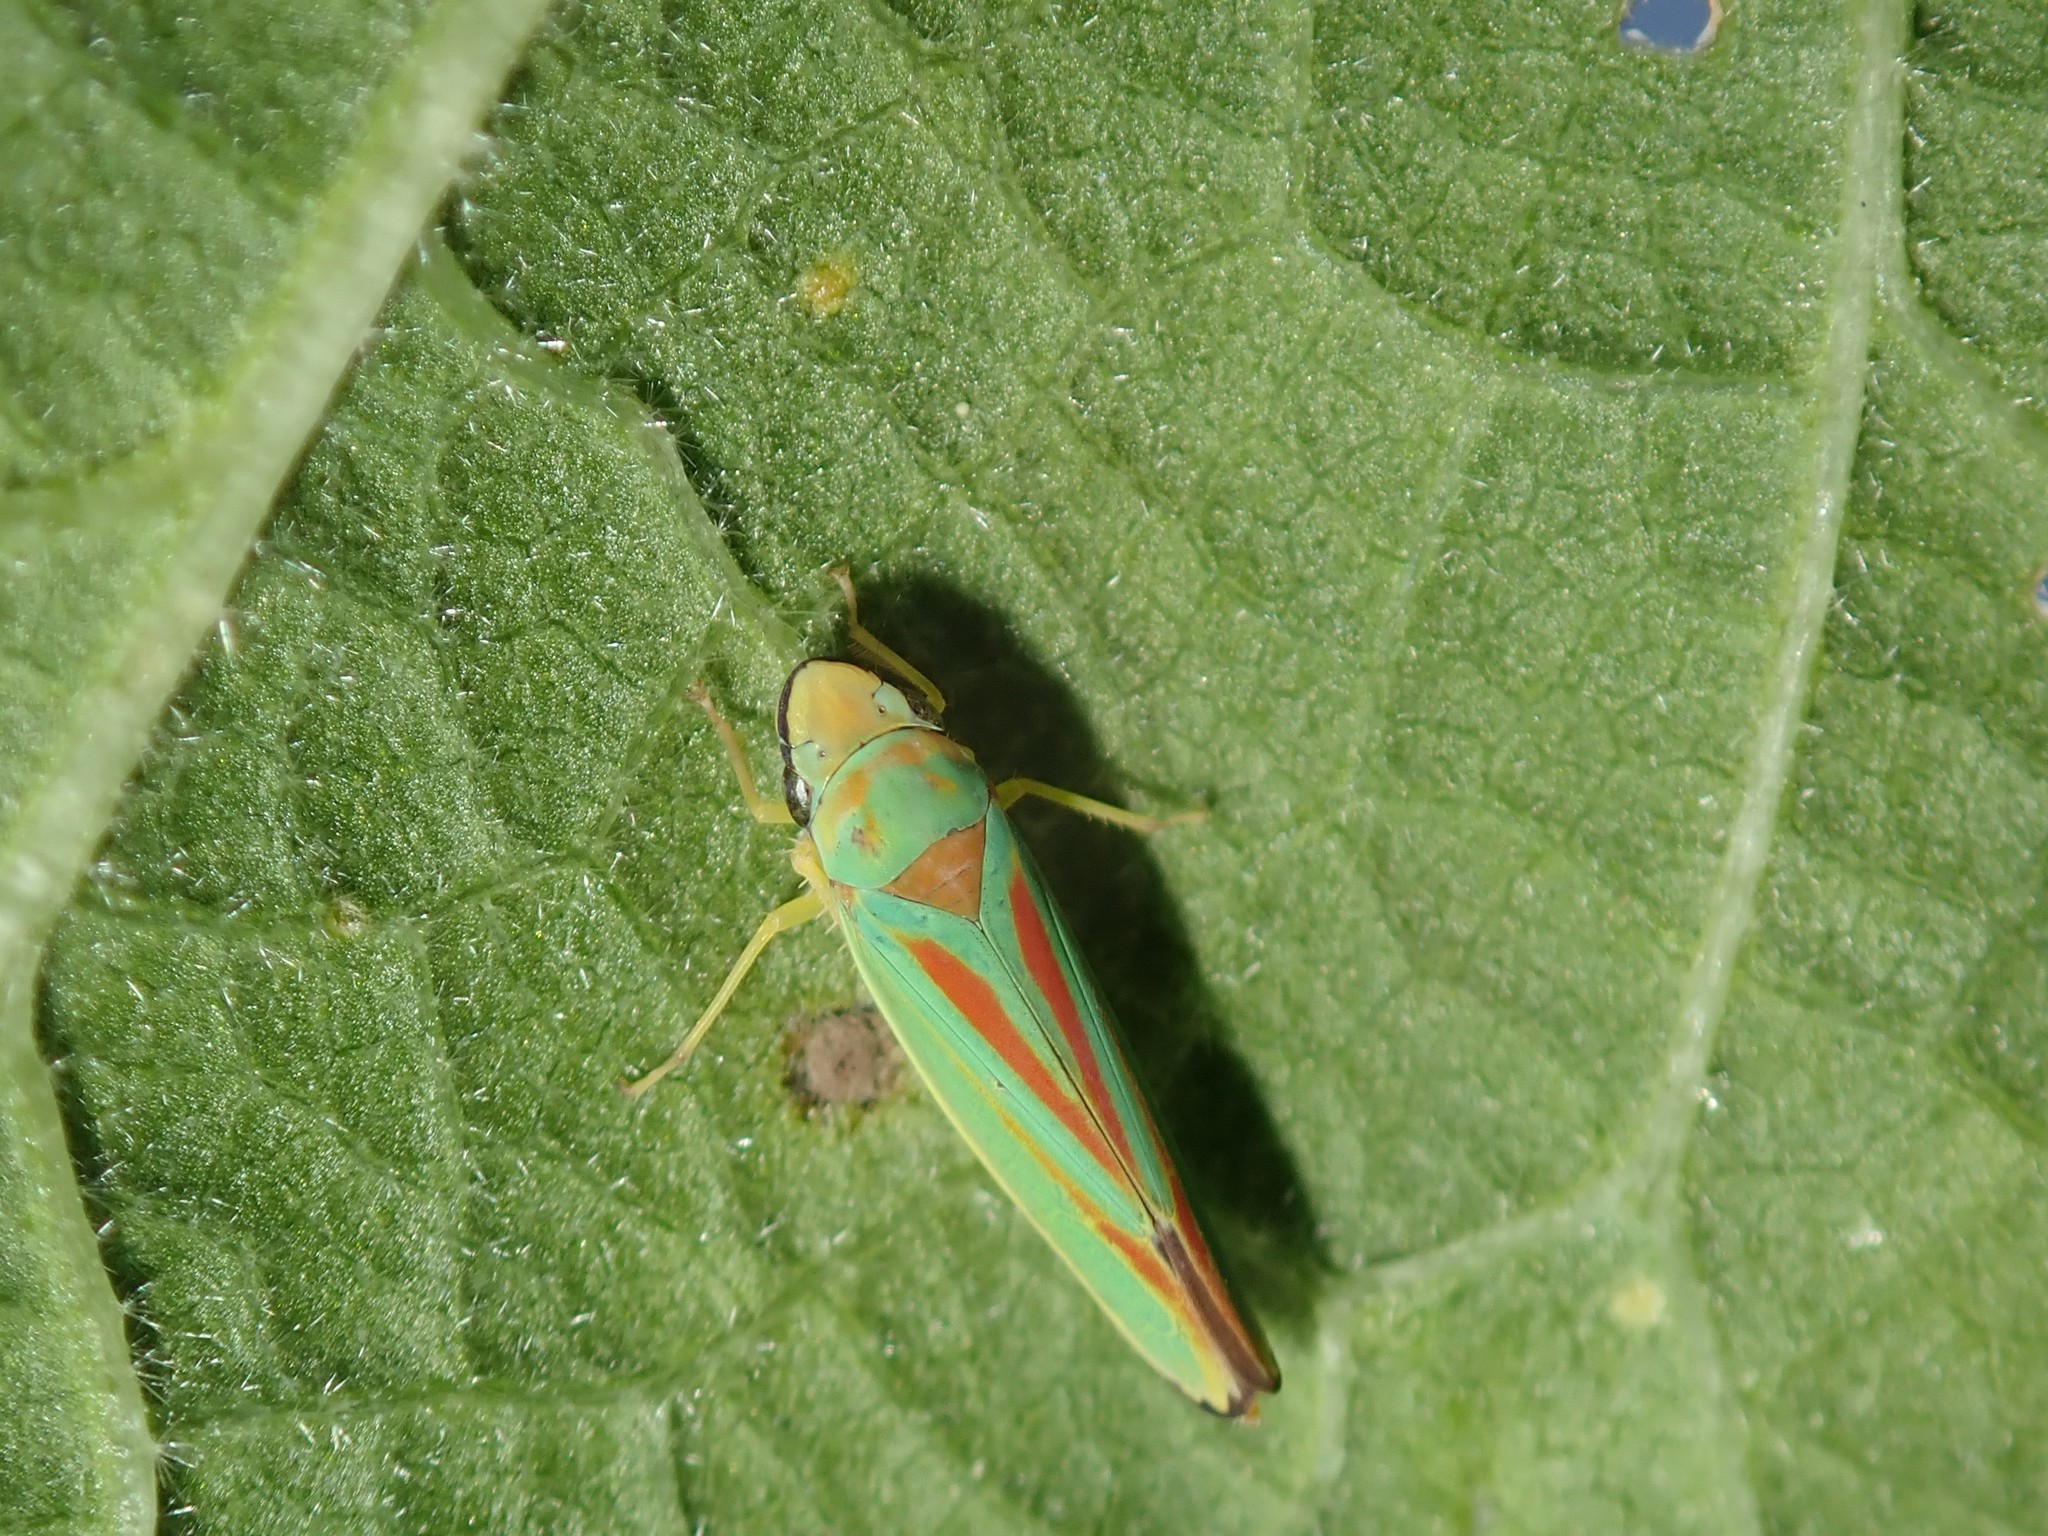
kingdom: Animalia
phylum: Arthropoda
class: Insecta
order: Hemiptera
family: Cicadellidae
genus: Graphocephala
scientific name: Graphocephala fennahi
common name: Rhododendron leafhopper
